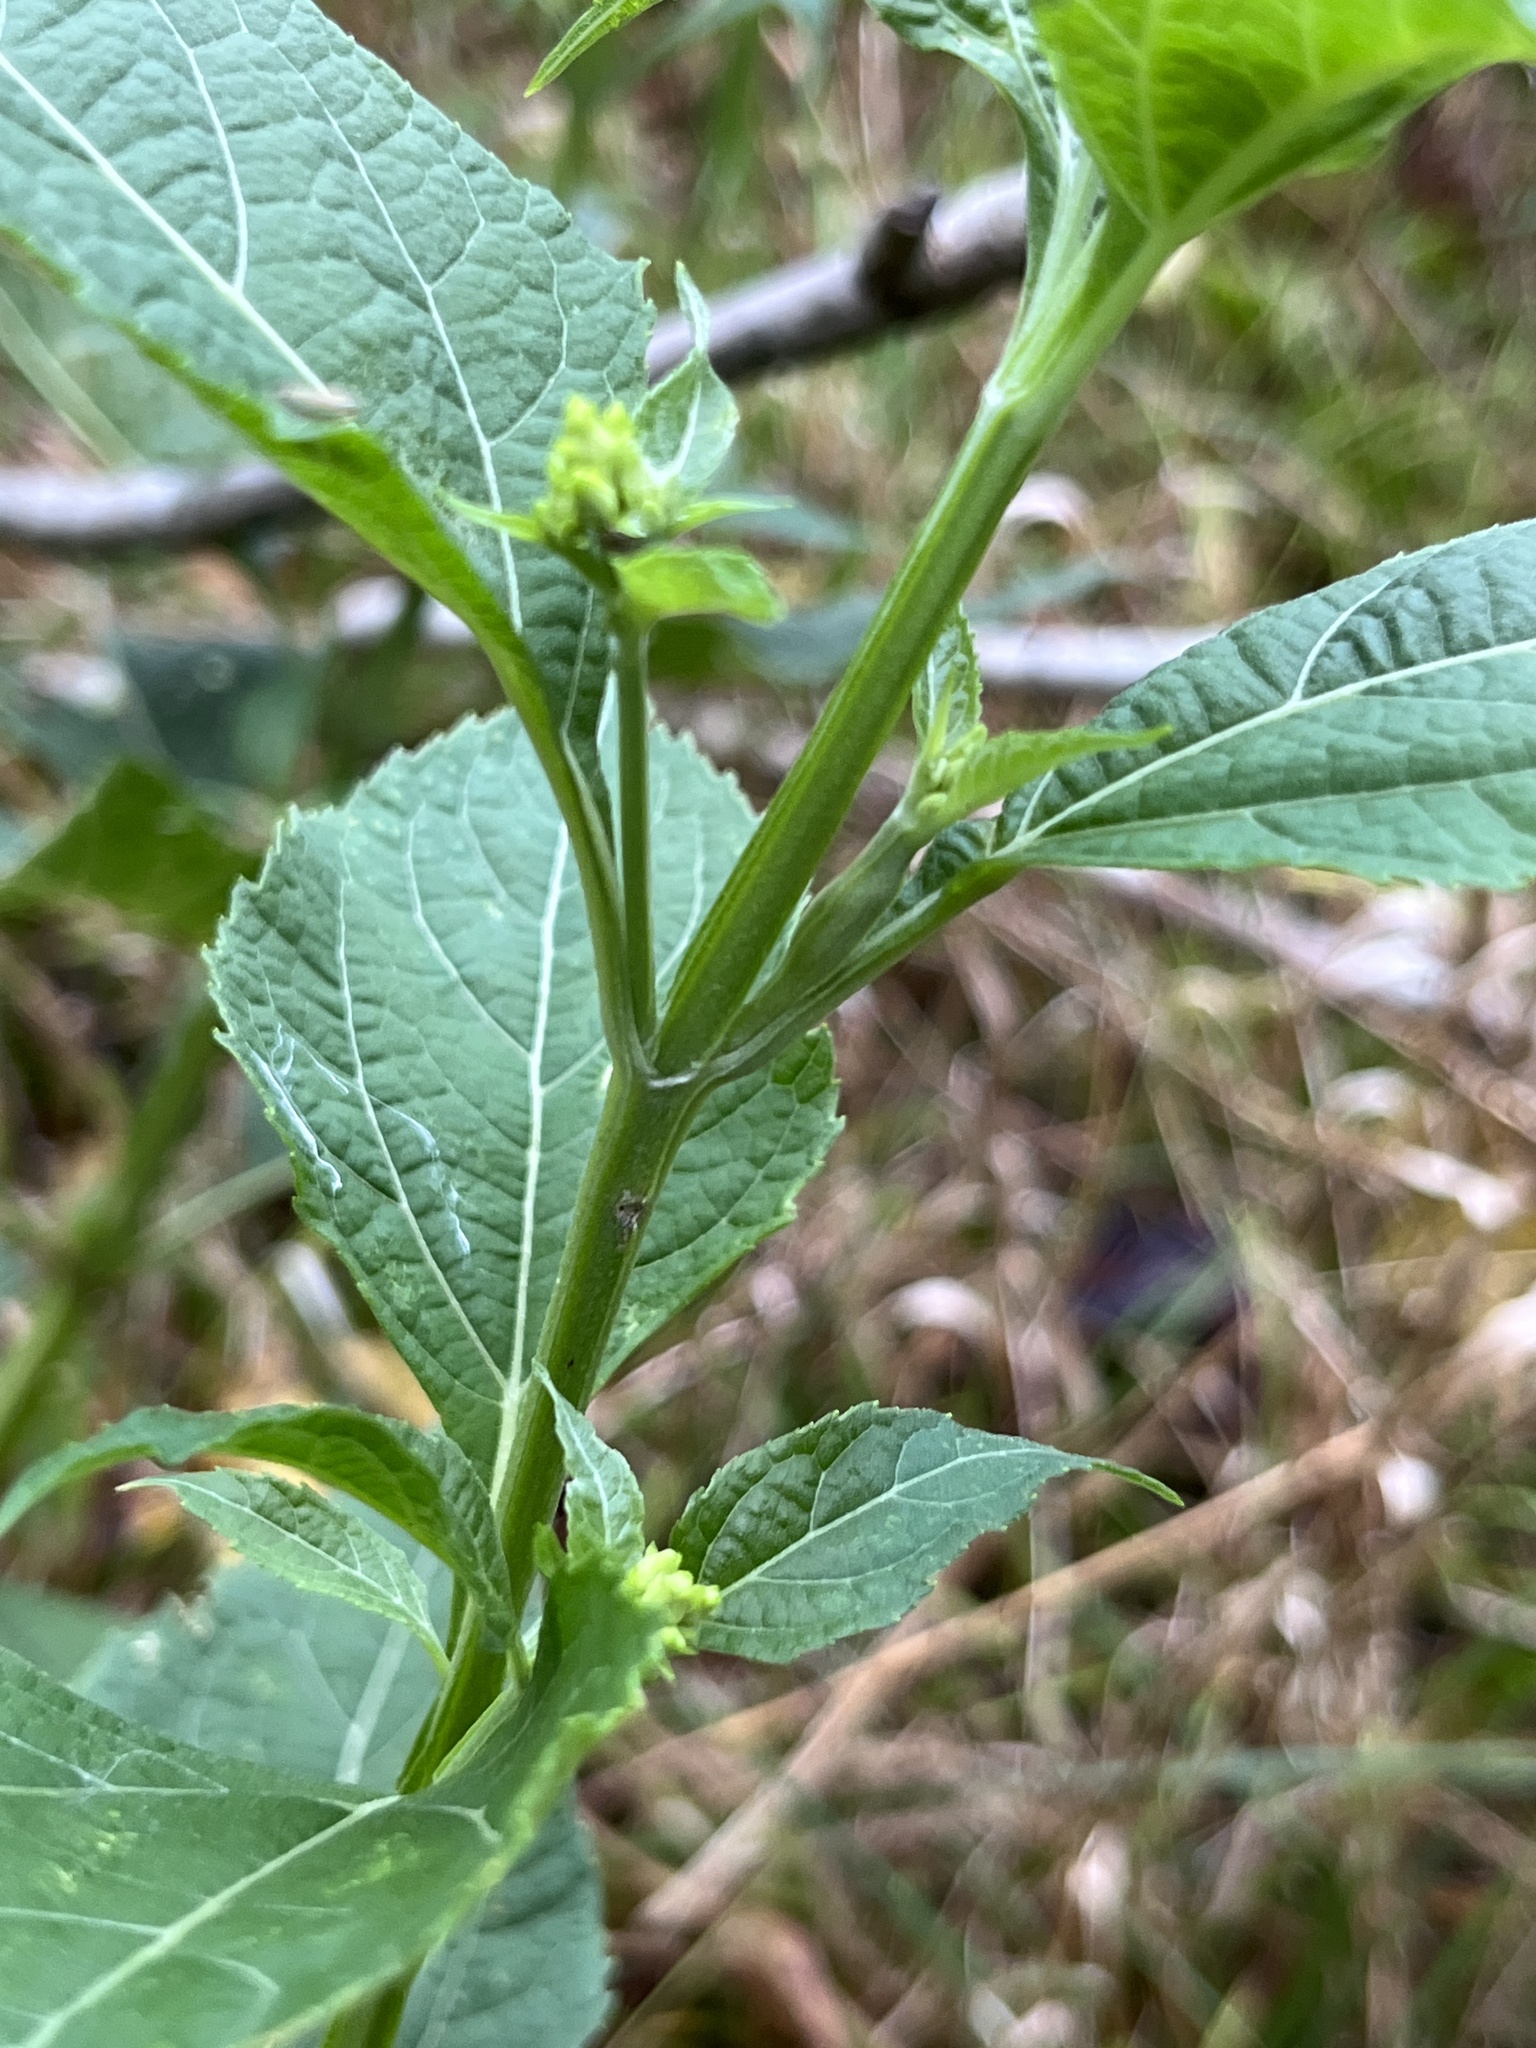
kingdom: Plantae
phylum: Tracheophyta
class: Magnoliopsida
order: Asterales
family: Asteraceae
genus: Verbesina
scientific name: Verbesina occidentalis
